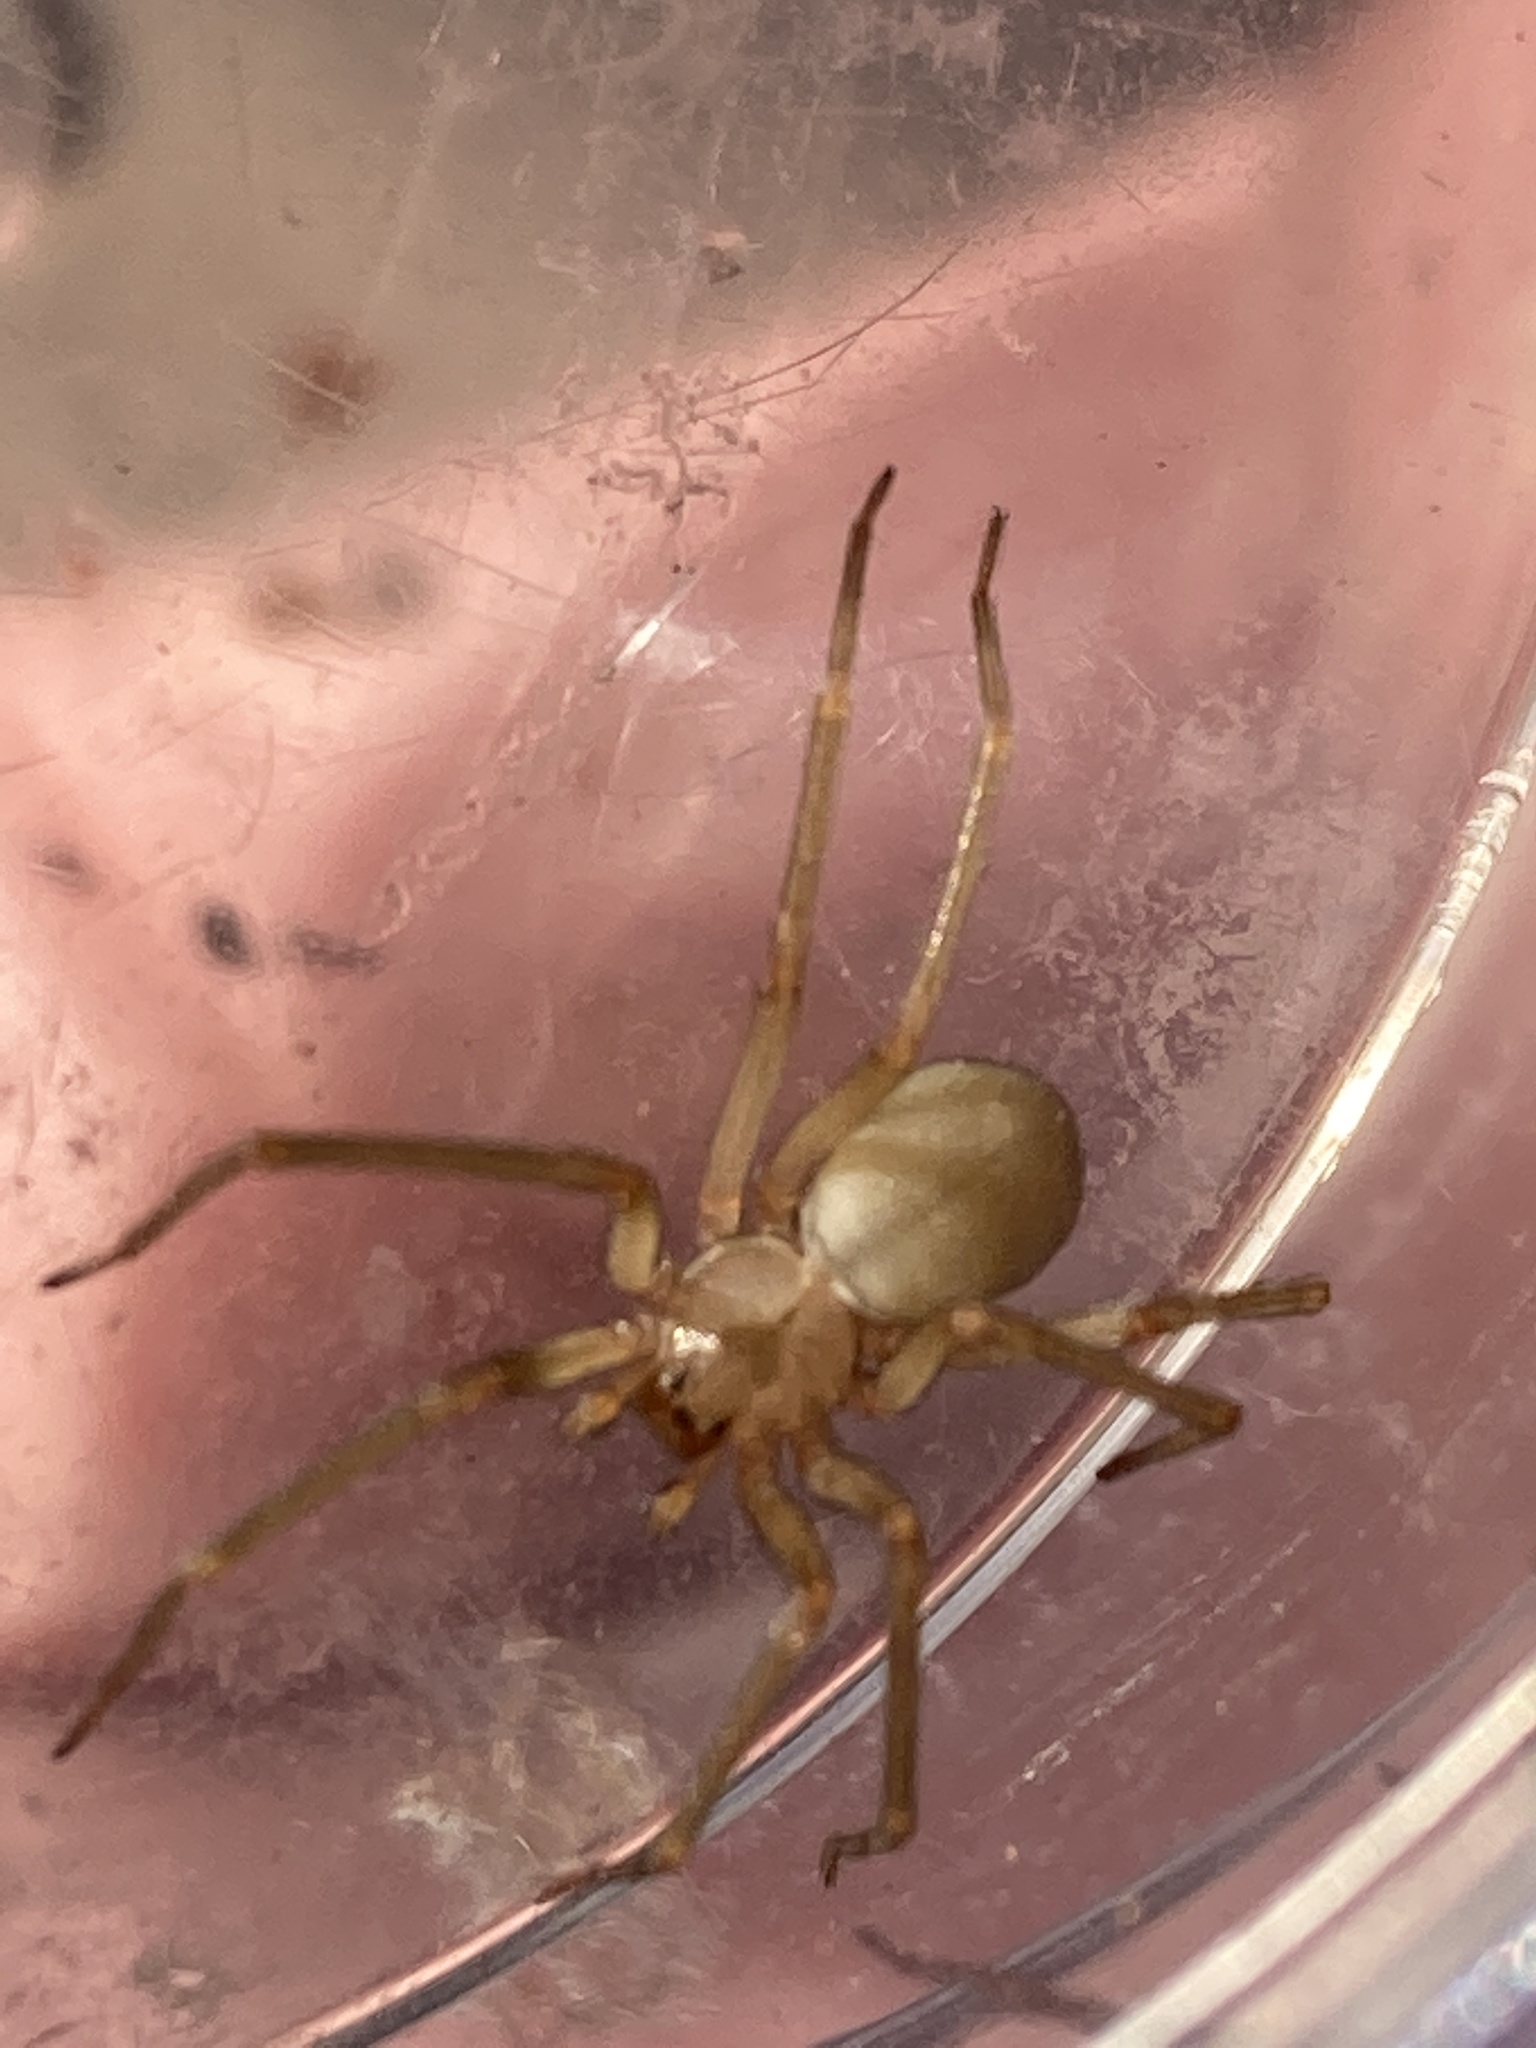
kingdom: Animalia
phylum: Arthropoda
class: Arachnida
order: Araneae
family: Sicariidae
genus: Loxosceles
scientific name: Loxosceles reclusa
